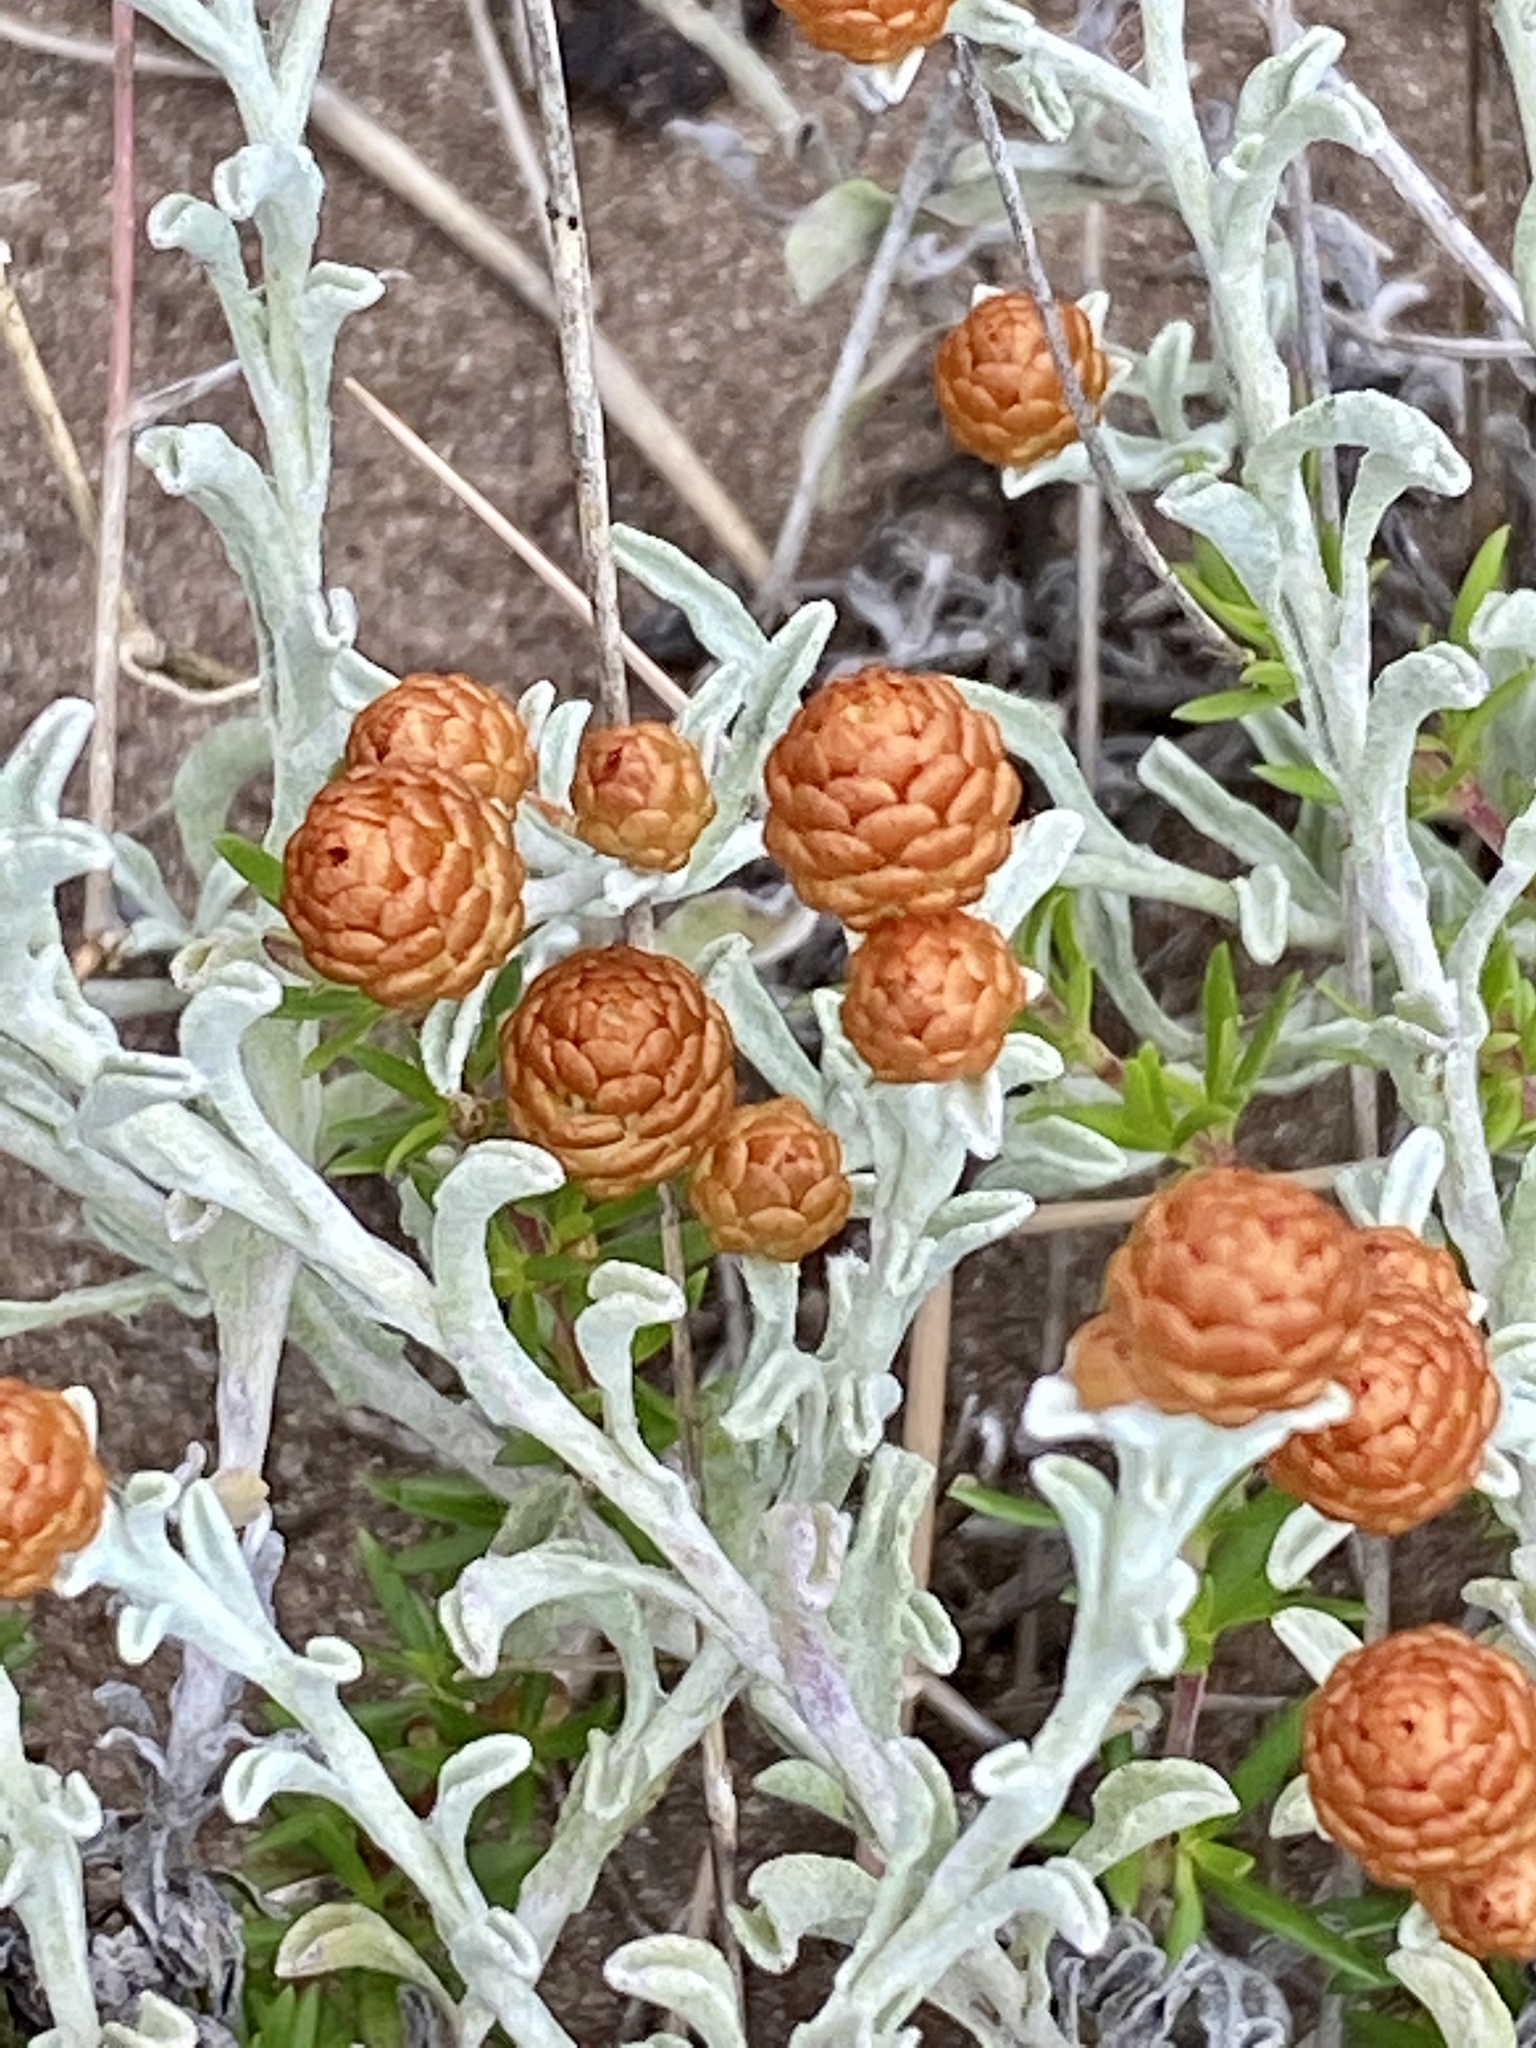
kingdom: Plantae
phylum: Tracheophyta
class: Magnoliopsida
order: Asterales
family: Asteraceae
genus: Helichrysum
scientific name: Helichrysum cochleariforme
